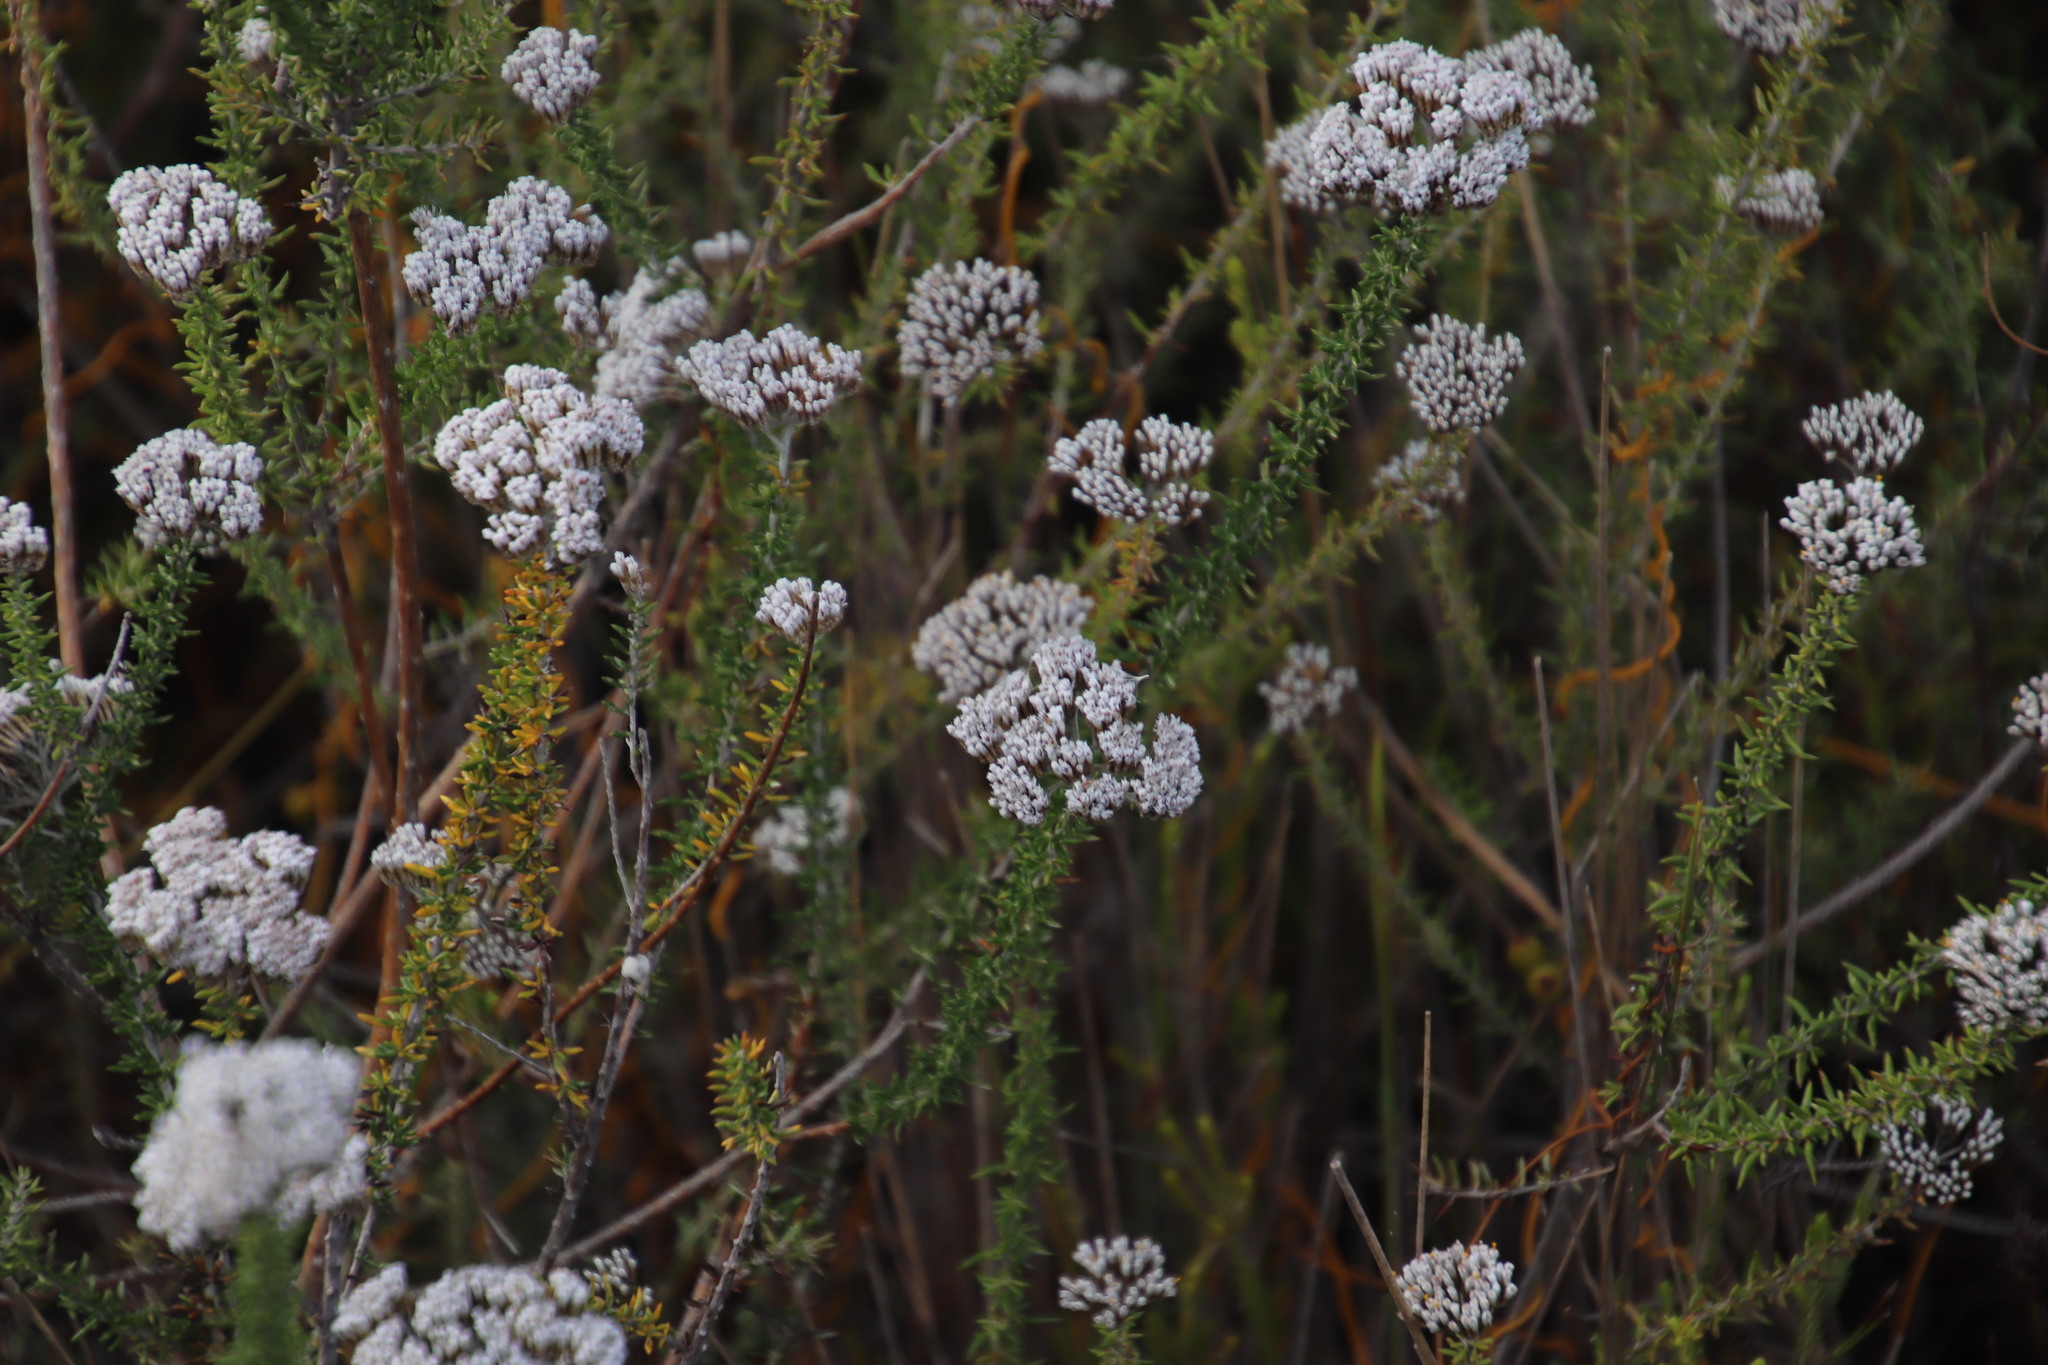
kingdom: Plantae
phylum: Tracheophyta
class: Magnoliopsida
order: Asterales
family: Asteraceae
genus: Metalasia
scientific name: Metalasia densa
